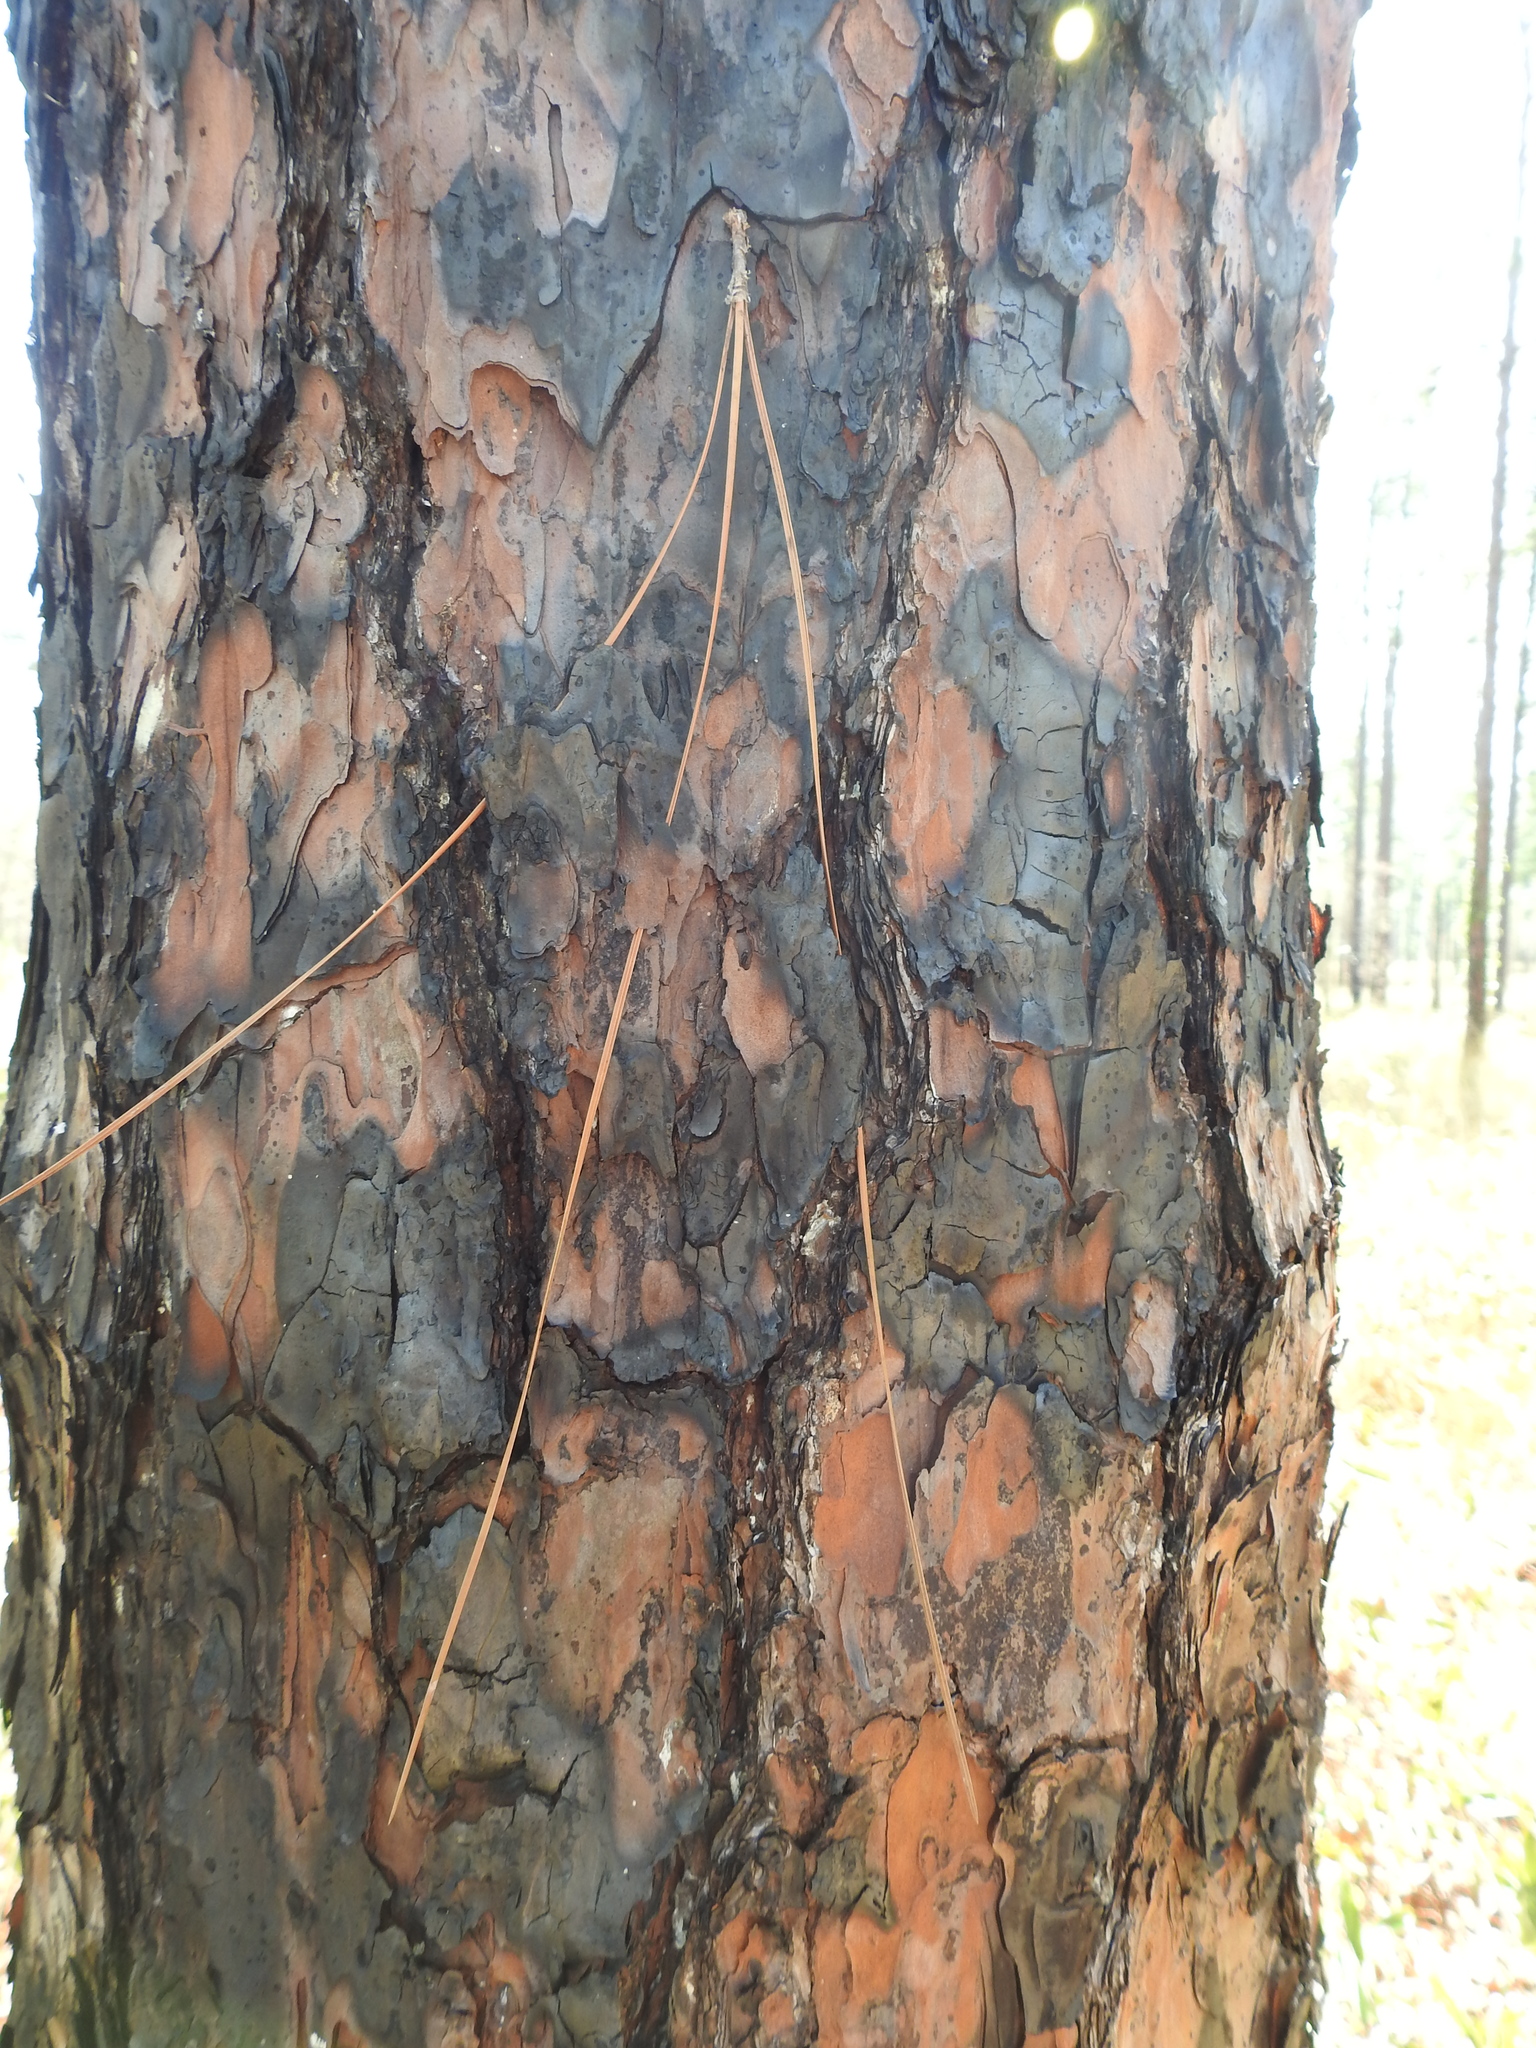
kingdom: Plantae
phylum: Tracheophyta
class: Pinopsida
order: Pinales
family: Pinaceae
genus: Pinus
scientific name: Pinus palustris
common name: Longleaf pine
